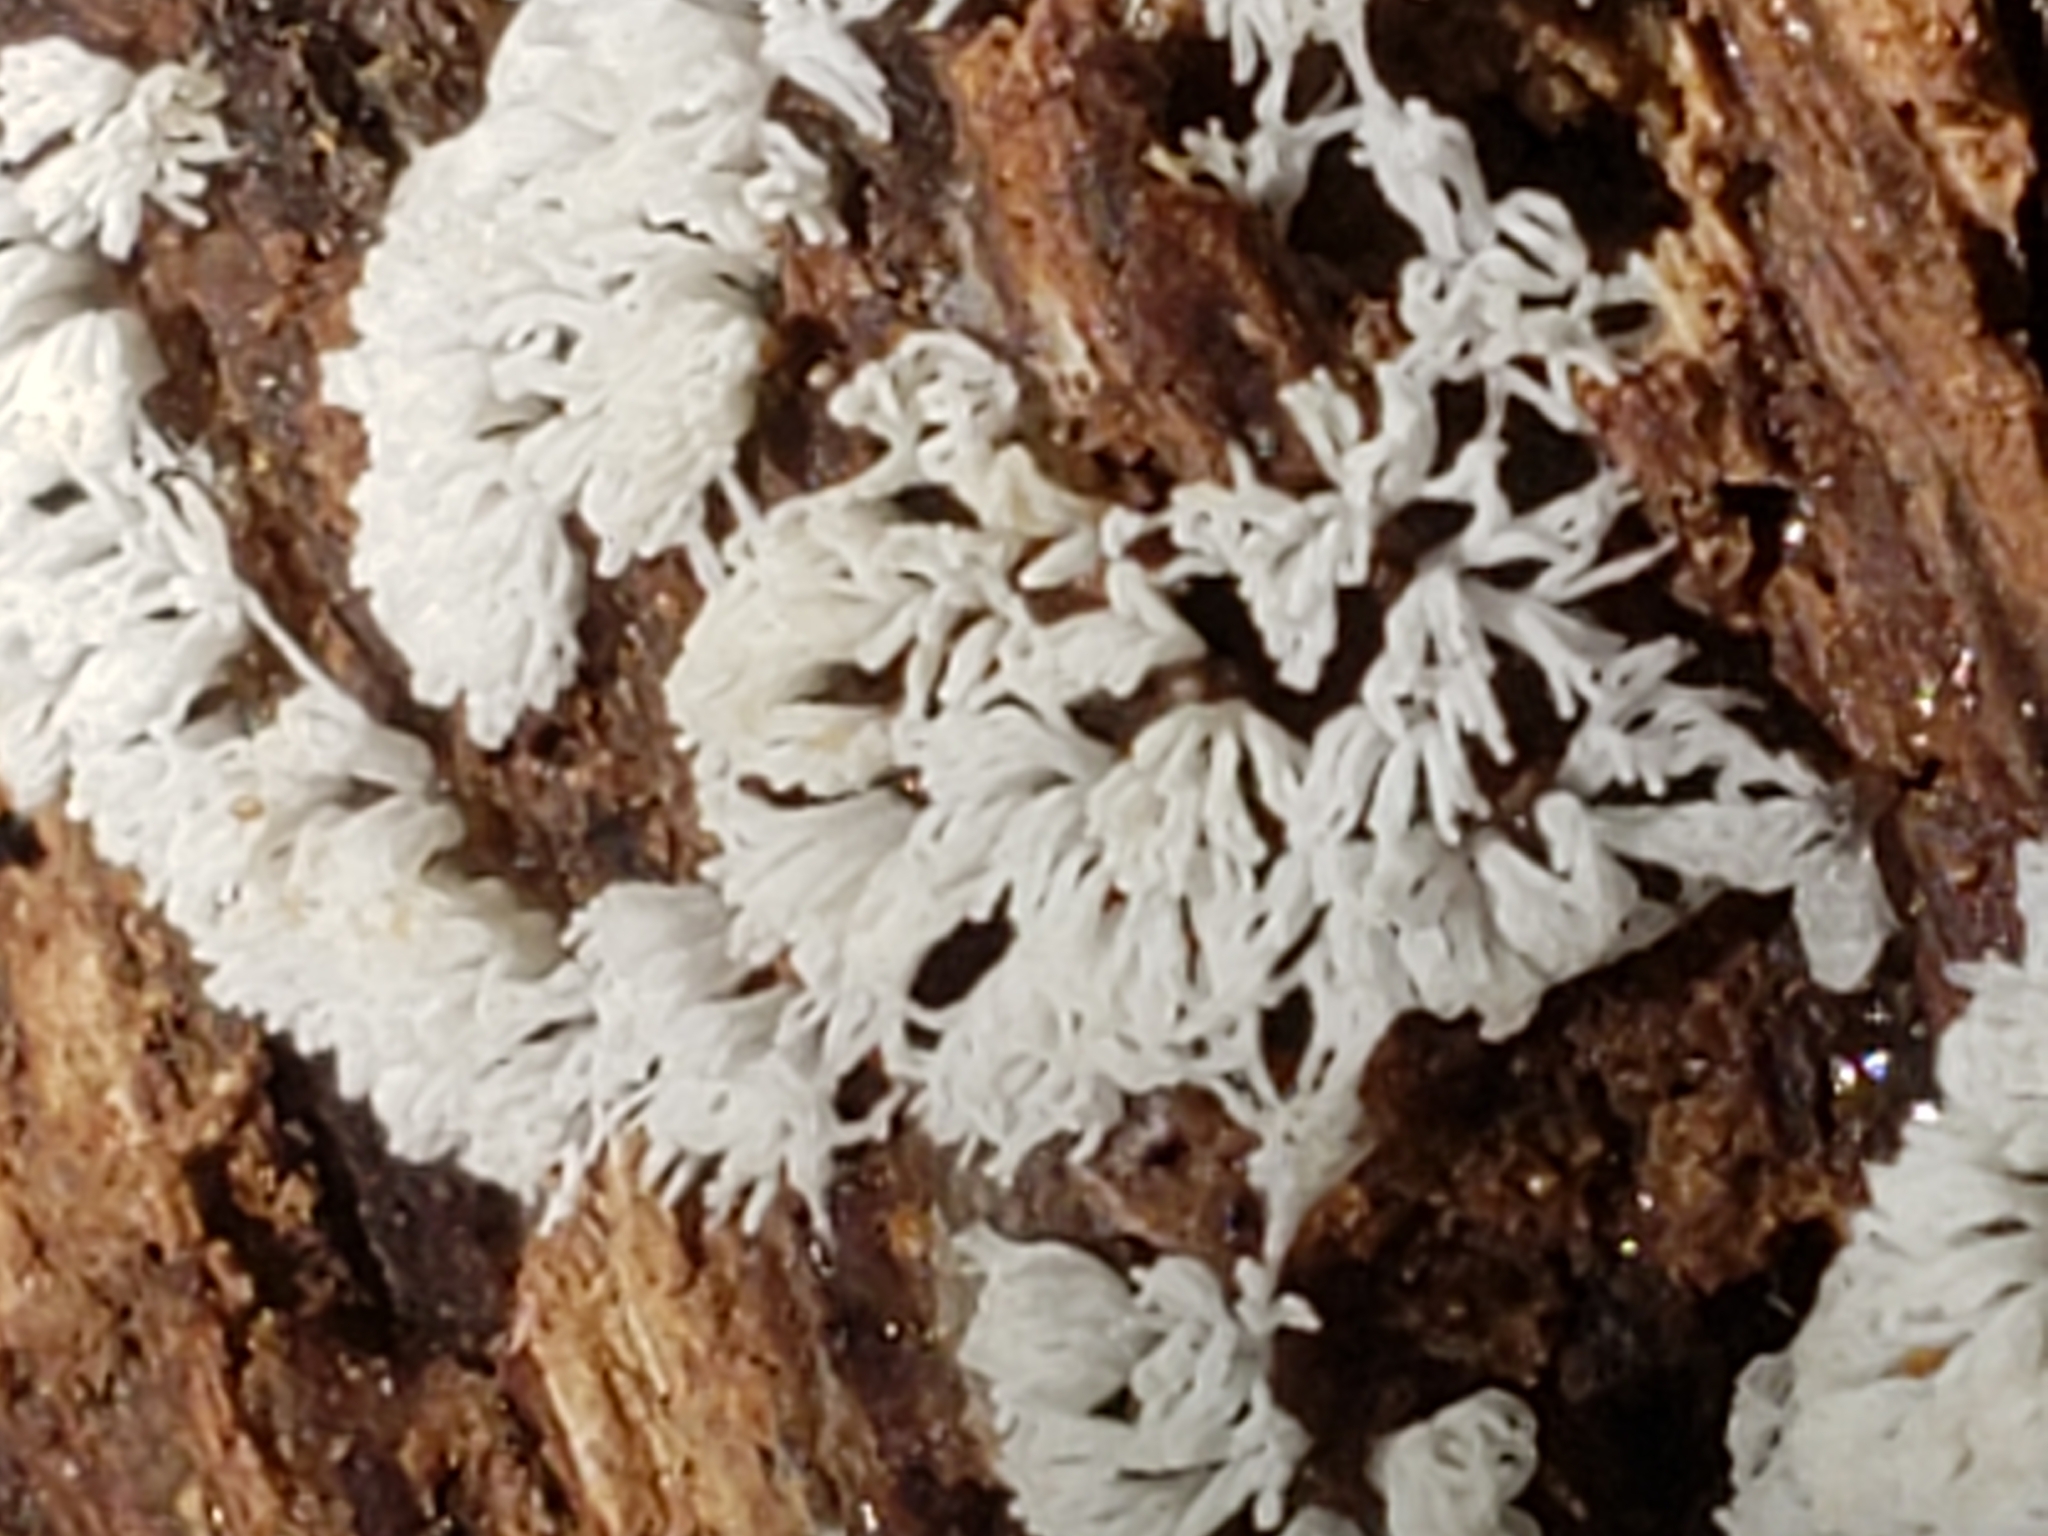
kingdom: Protozoa
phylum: Mycetozoa
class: Protosteliomycetes
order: Ceratiomyxales
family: Ceratiomyxaceae
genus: Ceratiomyxa
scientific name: Ceratiomyxa fruticulosa
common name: Honeycomb coral slime mold
